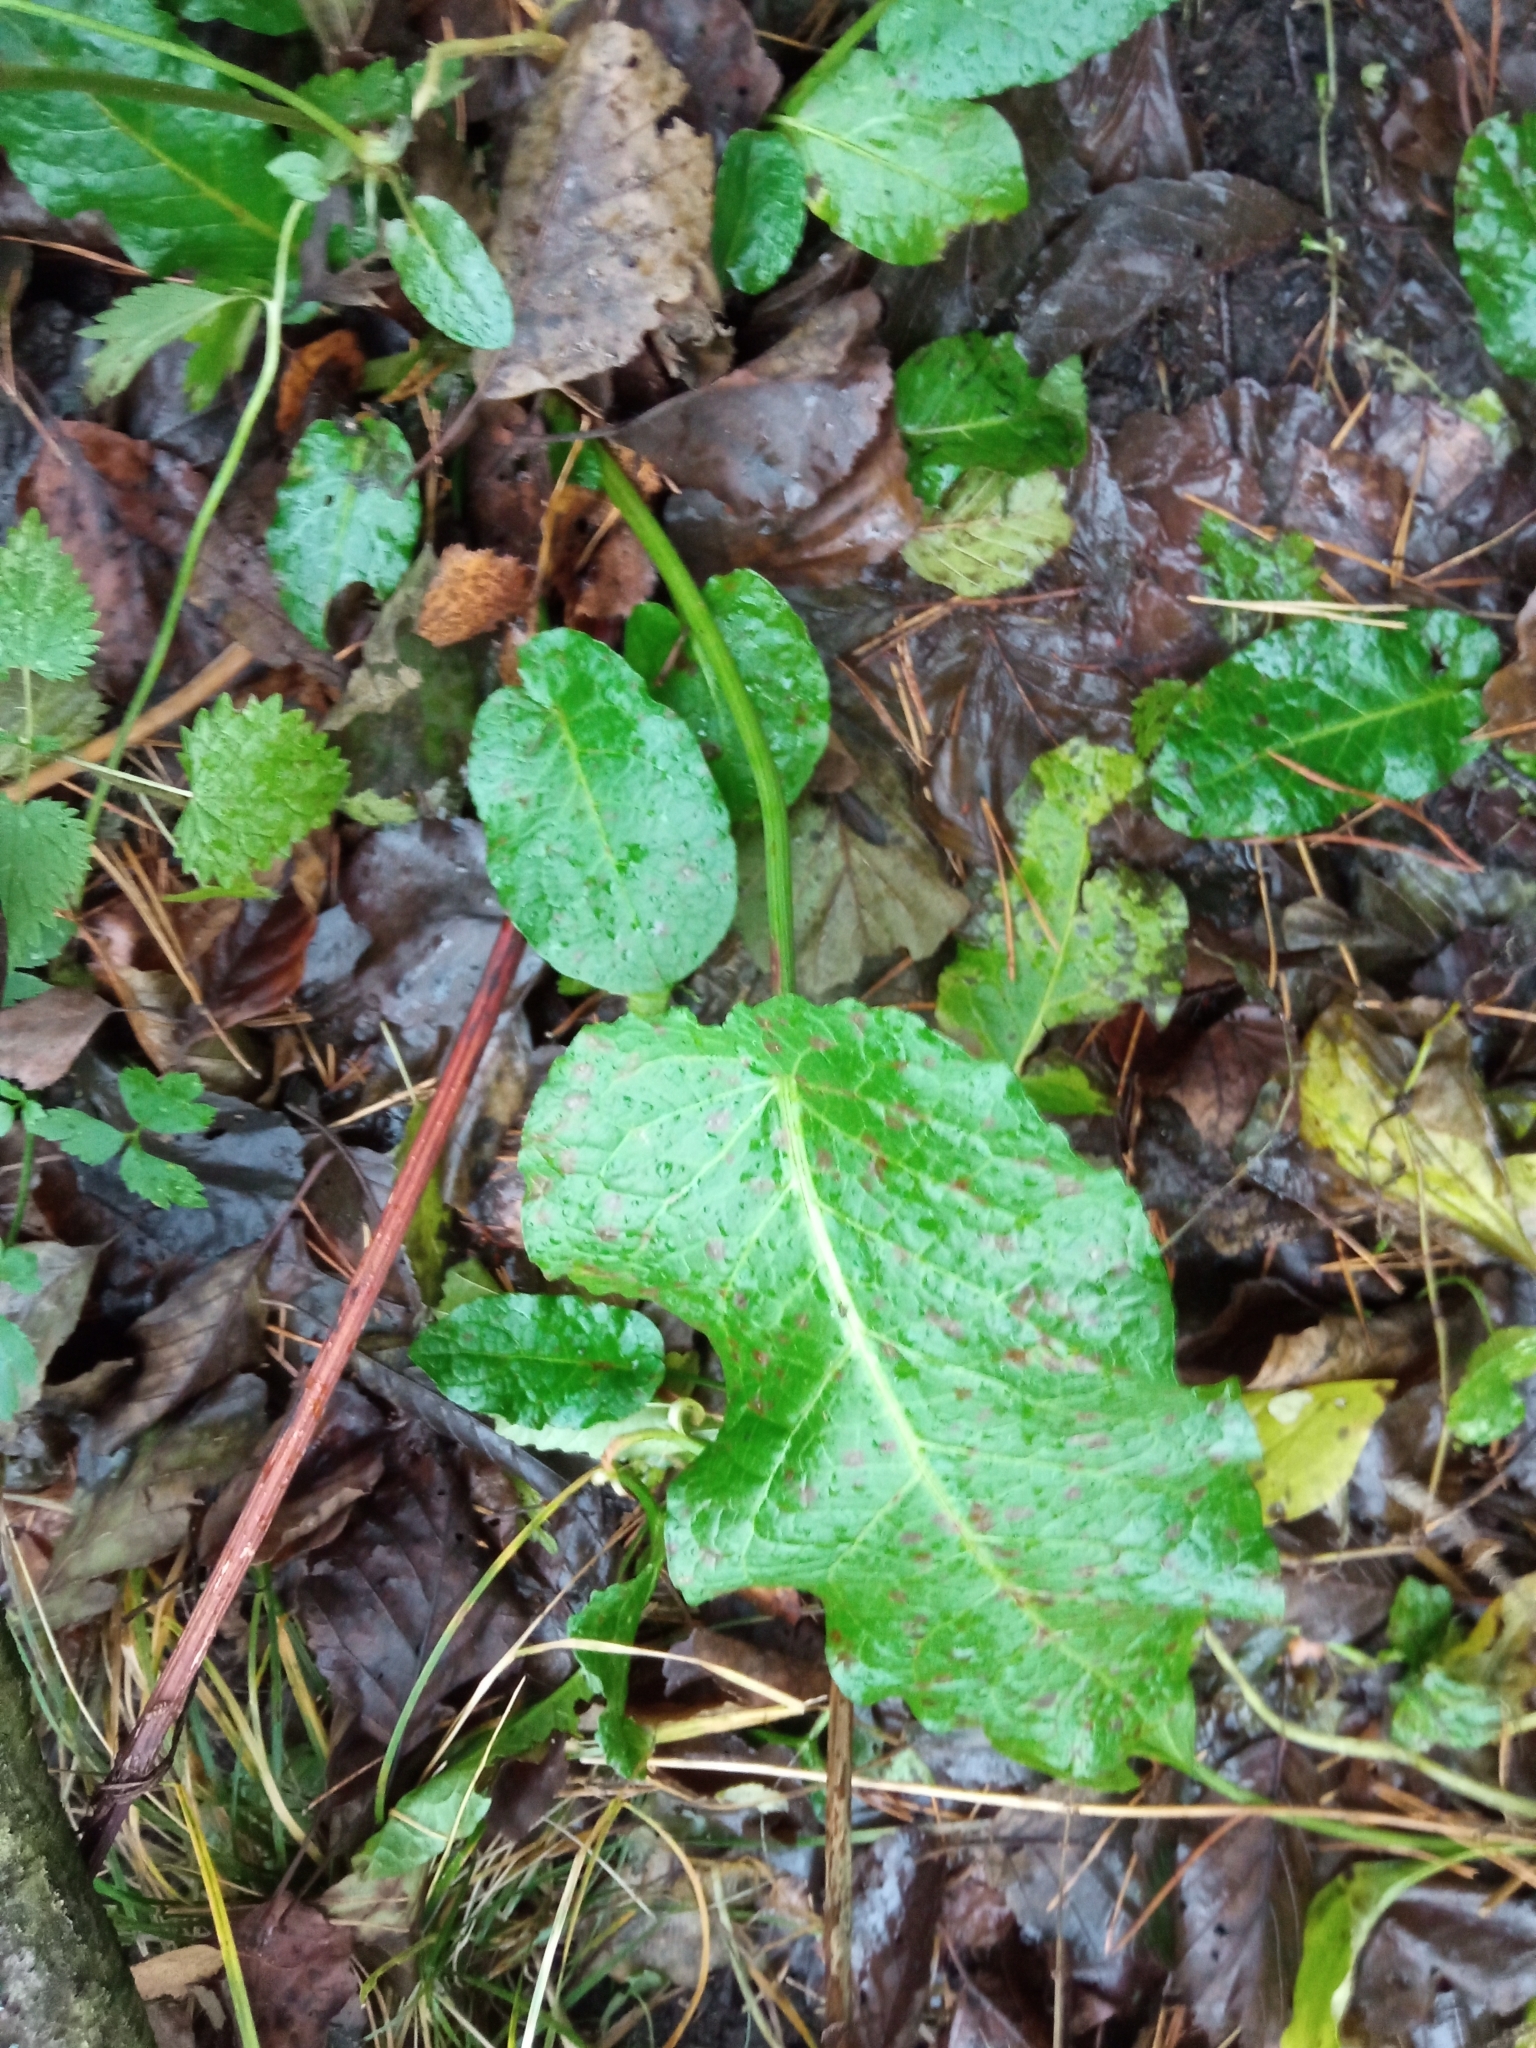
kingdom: Plantae
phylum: Tracheophyta
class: Magnoliopsida
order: Caryophyllales
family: Polygonaceae
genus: Rumex
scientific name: Rumex obtusifolius
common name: Bitter dock
